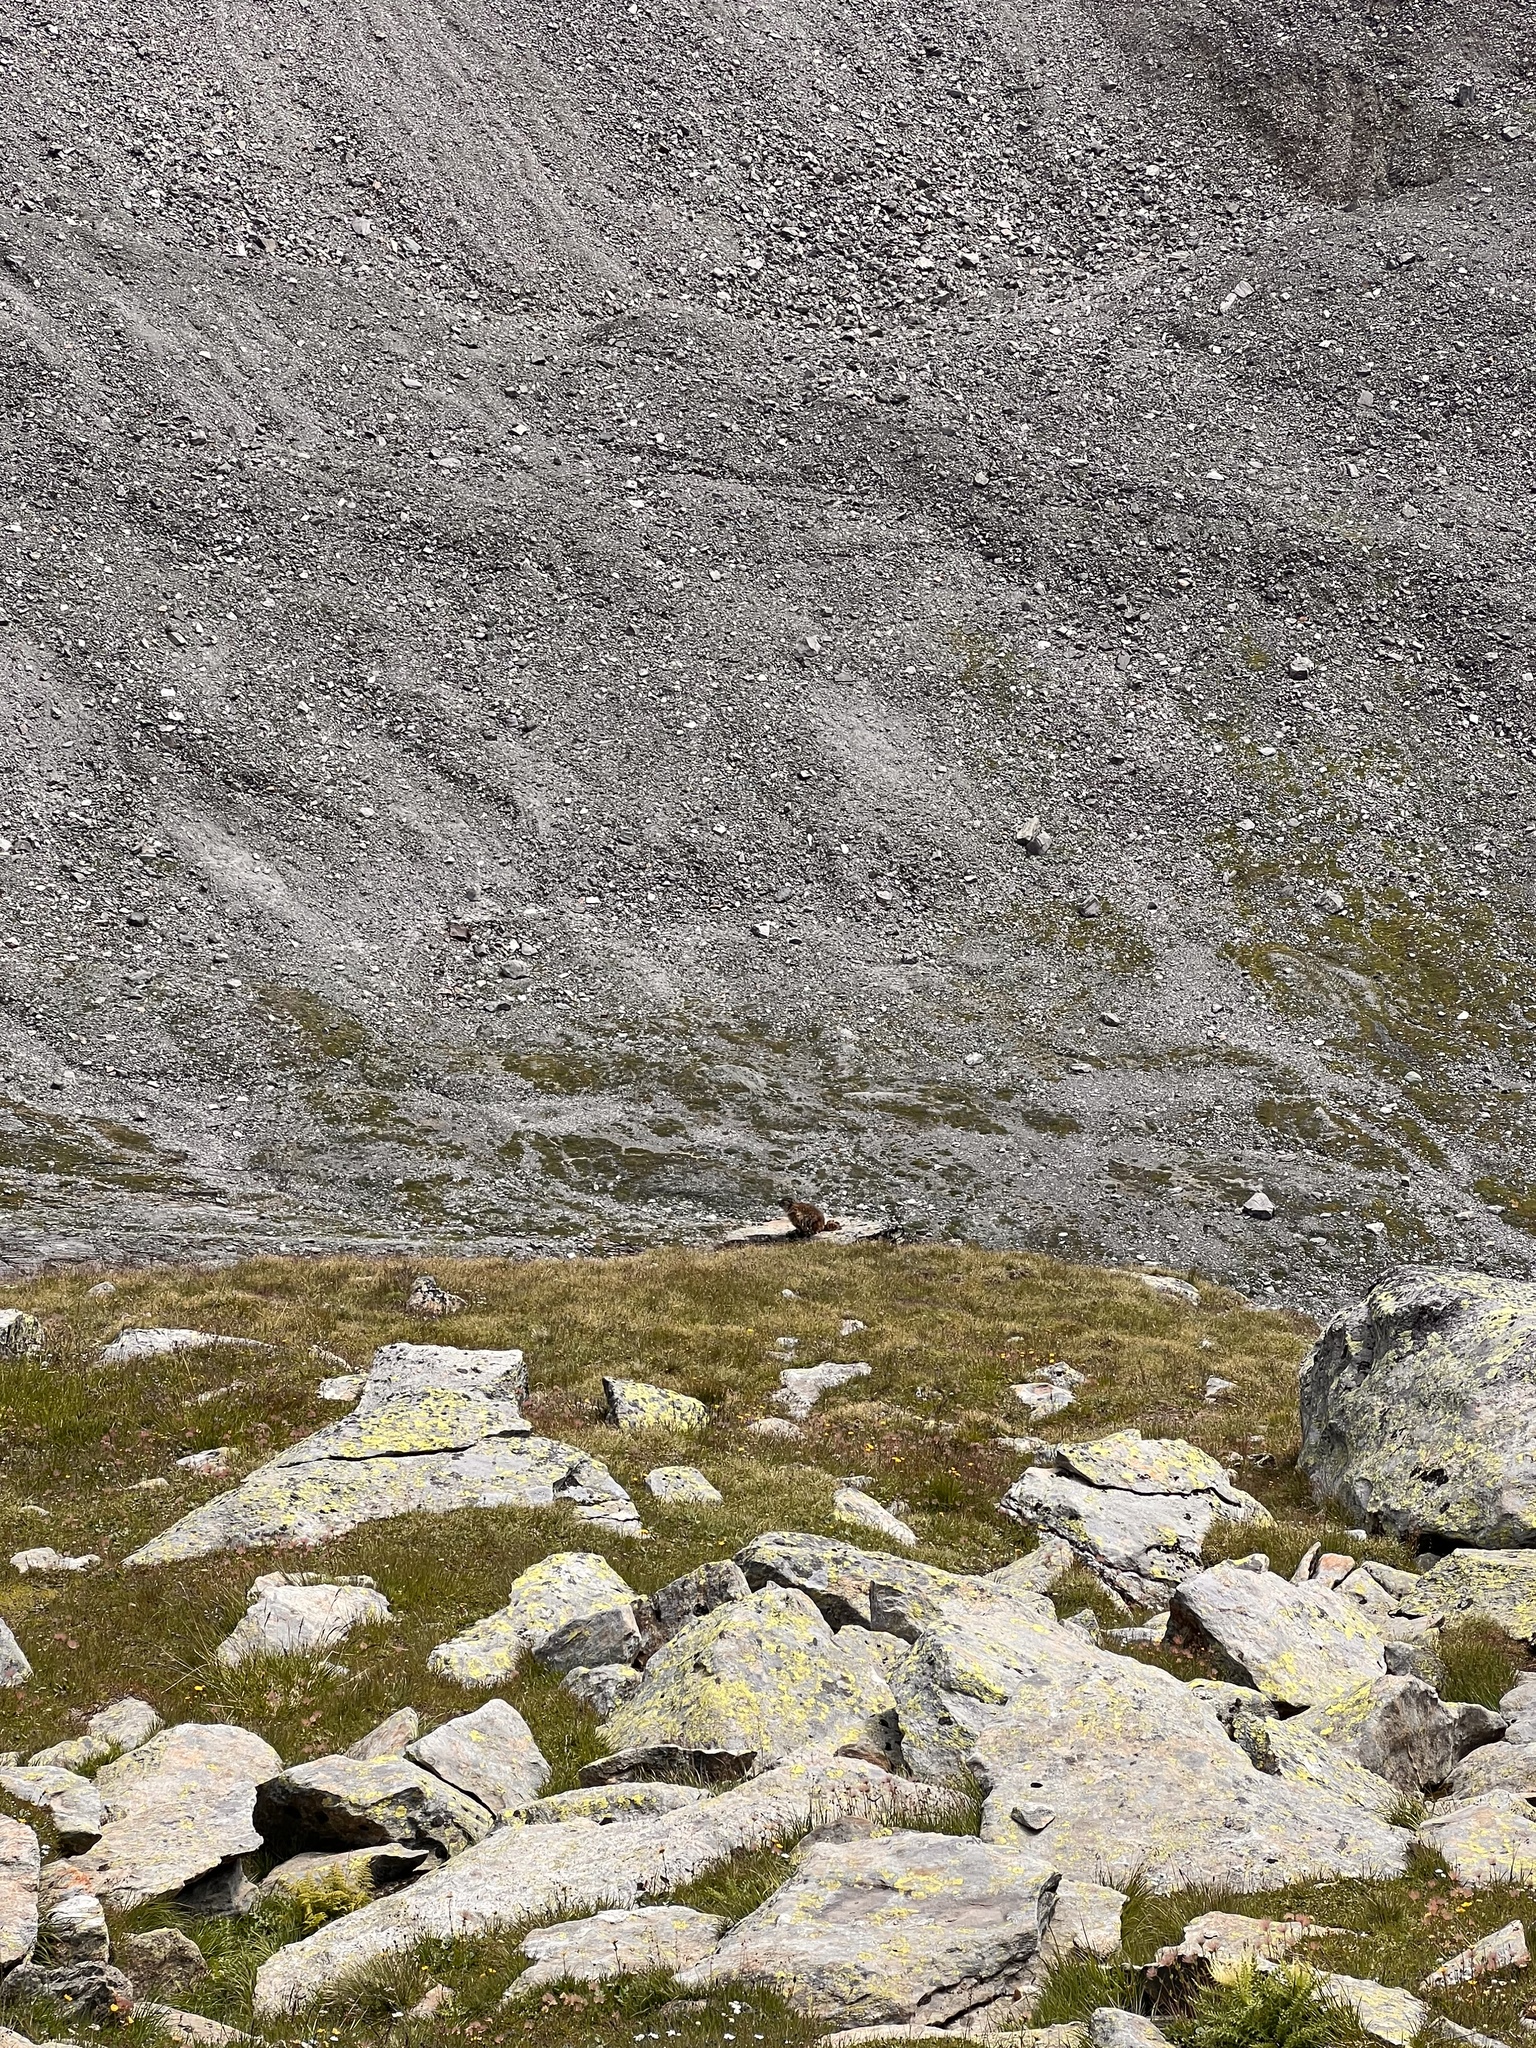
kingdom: Animalia
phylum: Chordata
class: Mammalia
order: Rodentia
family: Sciuridae
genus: Marmota
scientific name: Marmota marmota
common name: Alpine marmot
